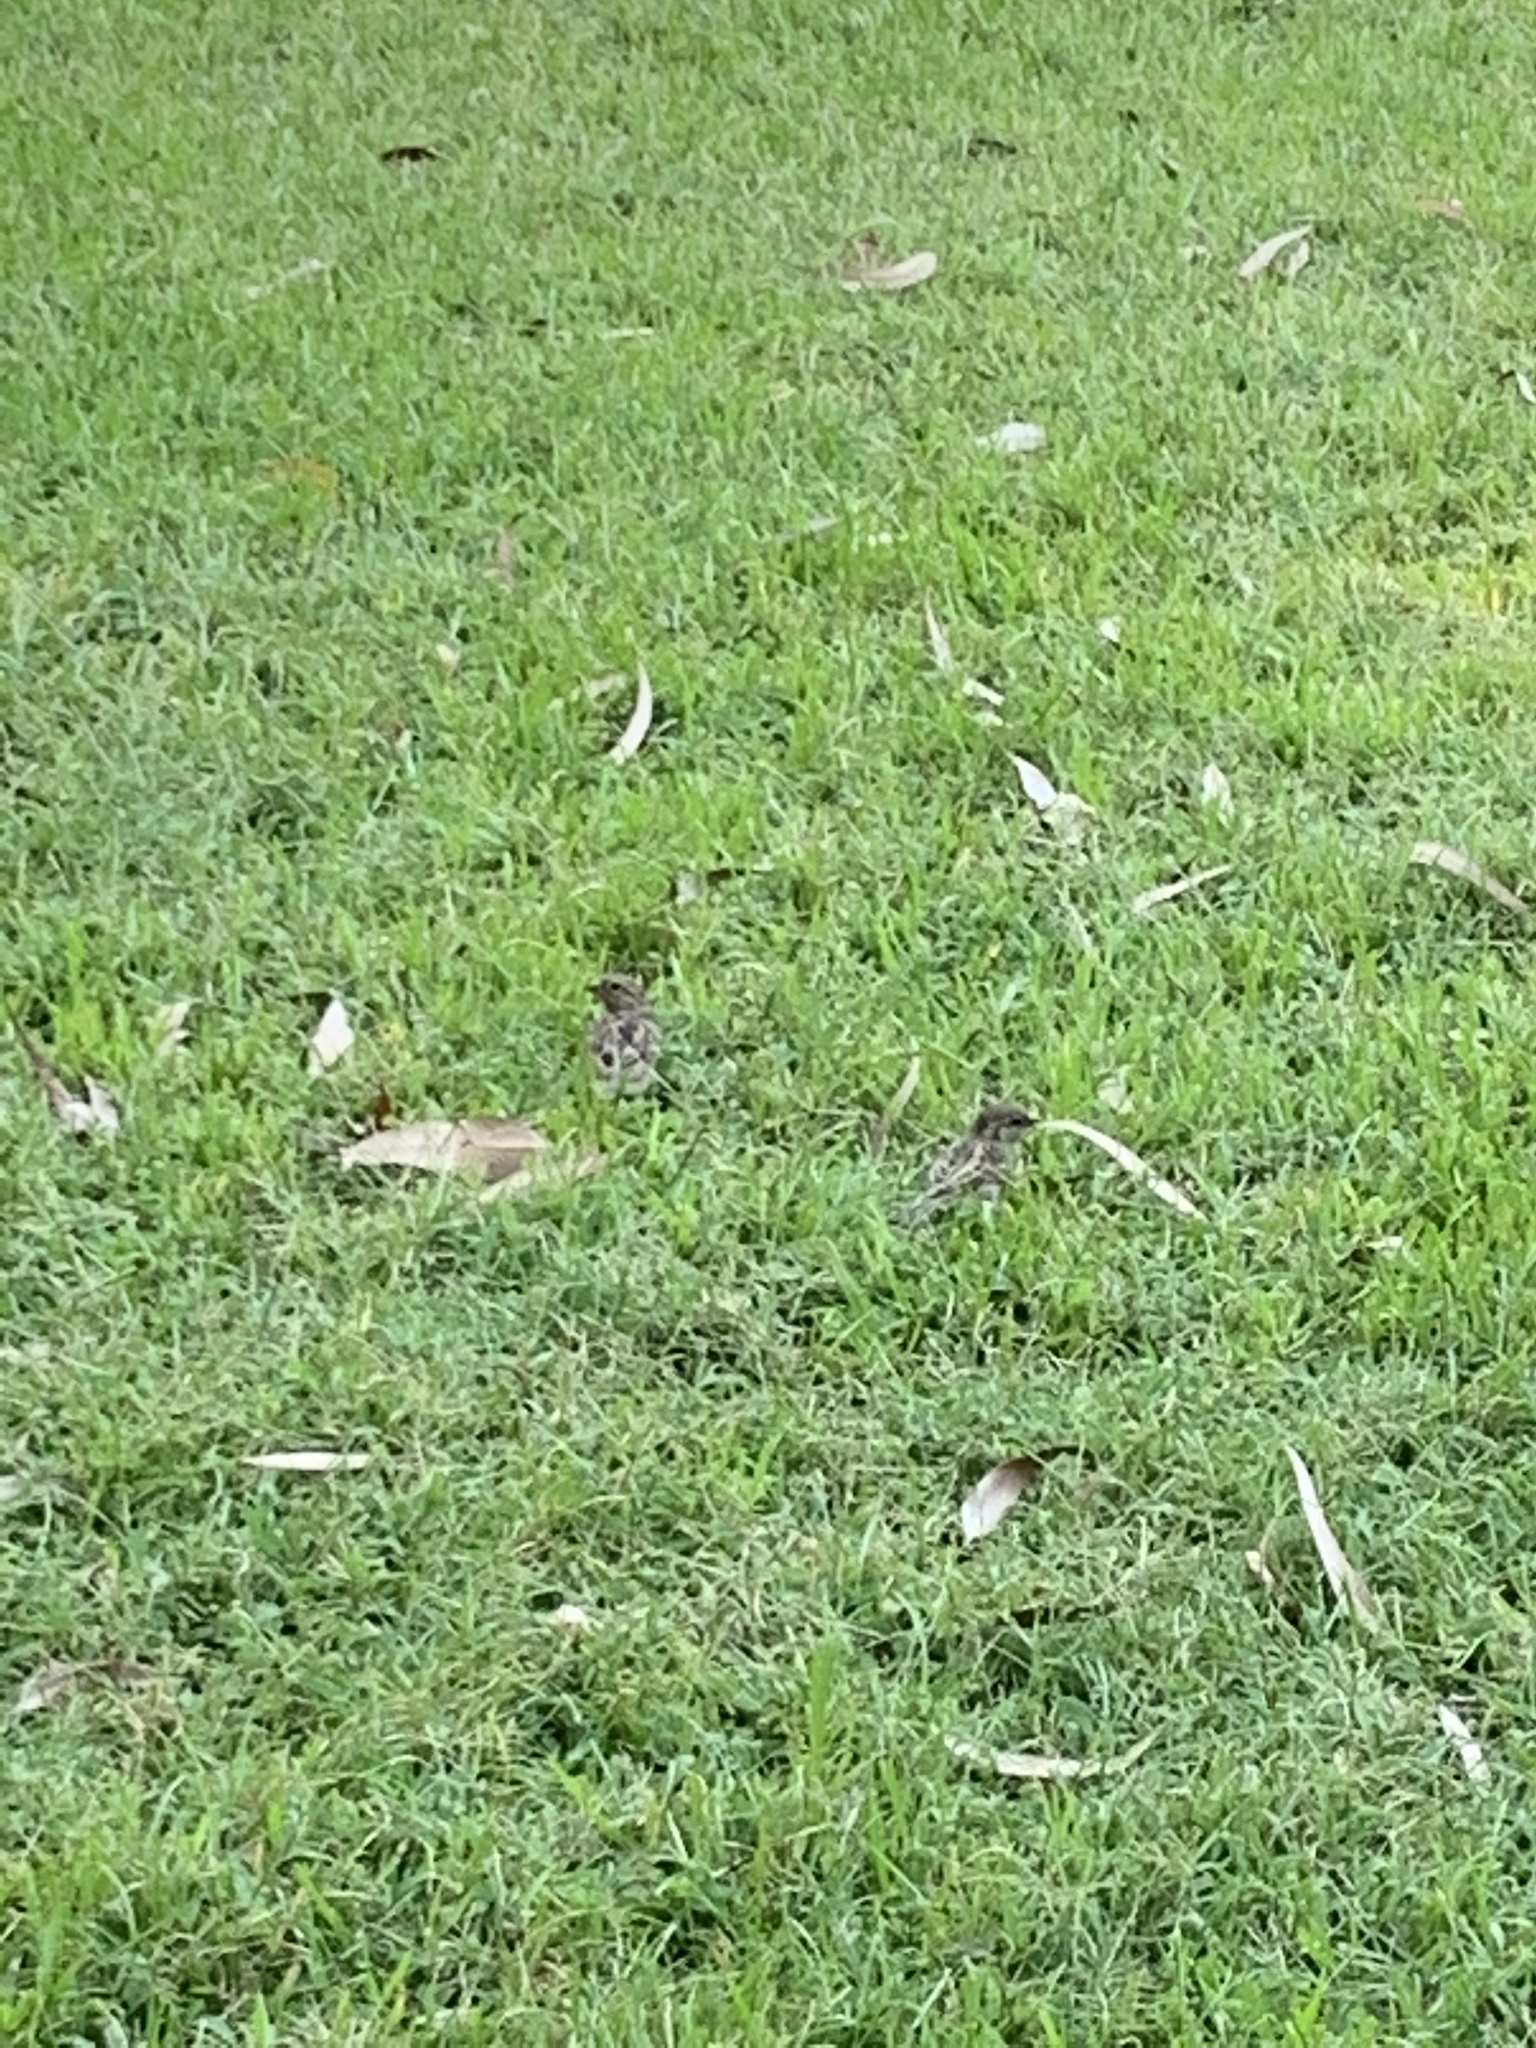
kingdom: Animalia
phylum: Chordata
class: Aves
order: Passeriformes
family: Passeridae
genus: Passer
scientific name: Passer domesticus
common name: House sparrow
